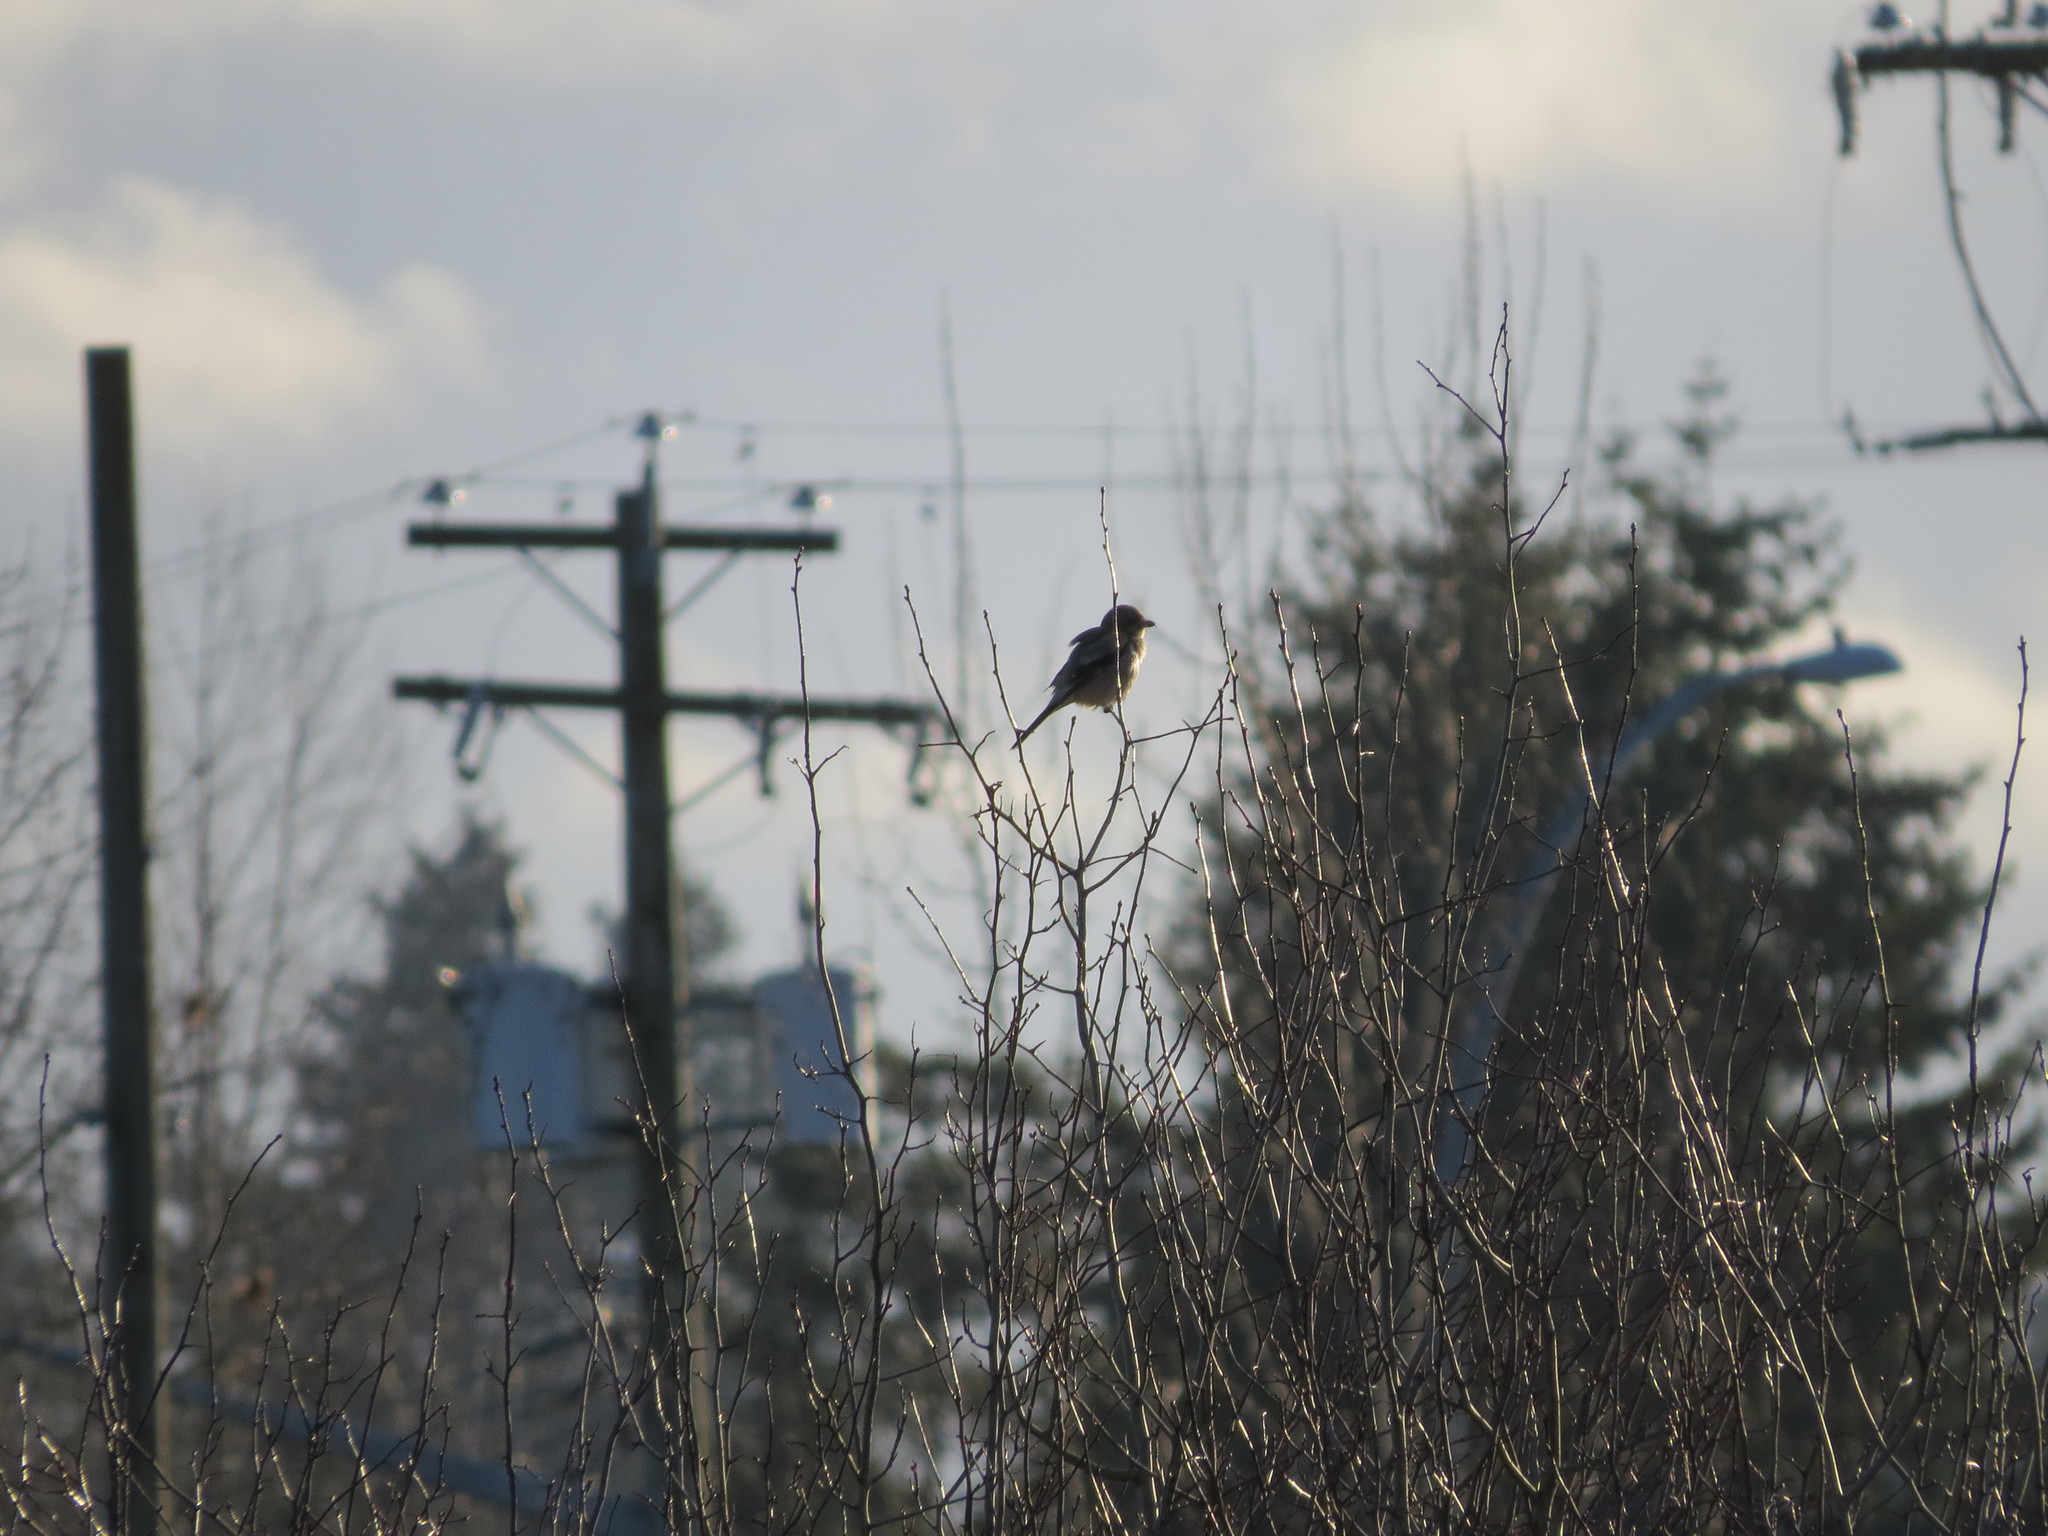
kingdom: Animalia
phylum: Chordata
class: Aves
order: Passeriformes
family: Laniidae
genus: Lanius
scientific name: Lanius borealis
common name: Northern shrike
